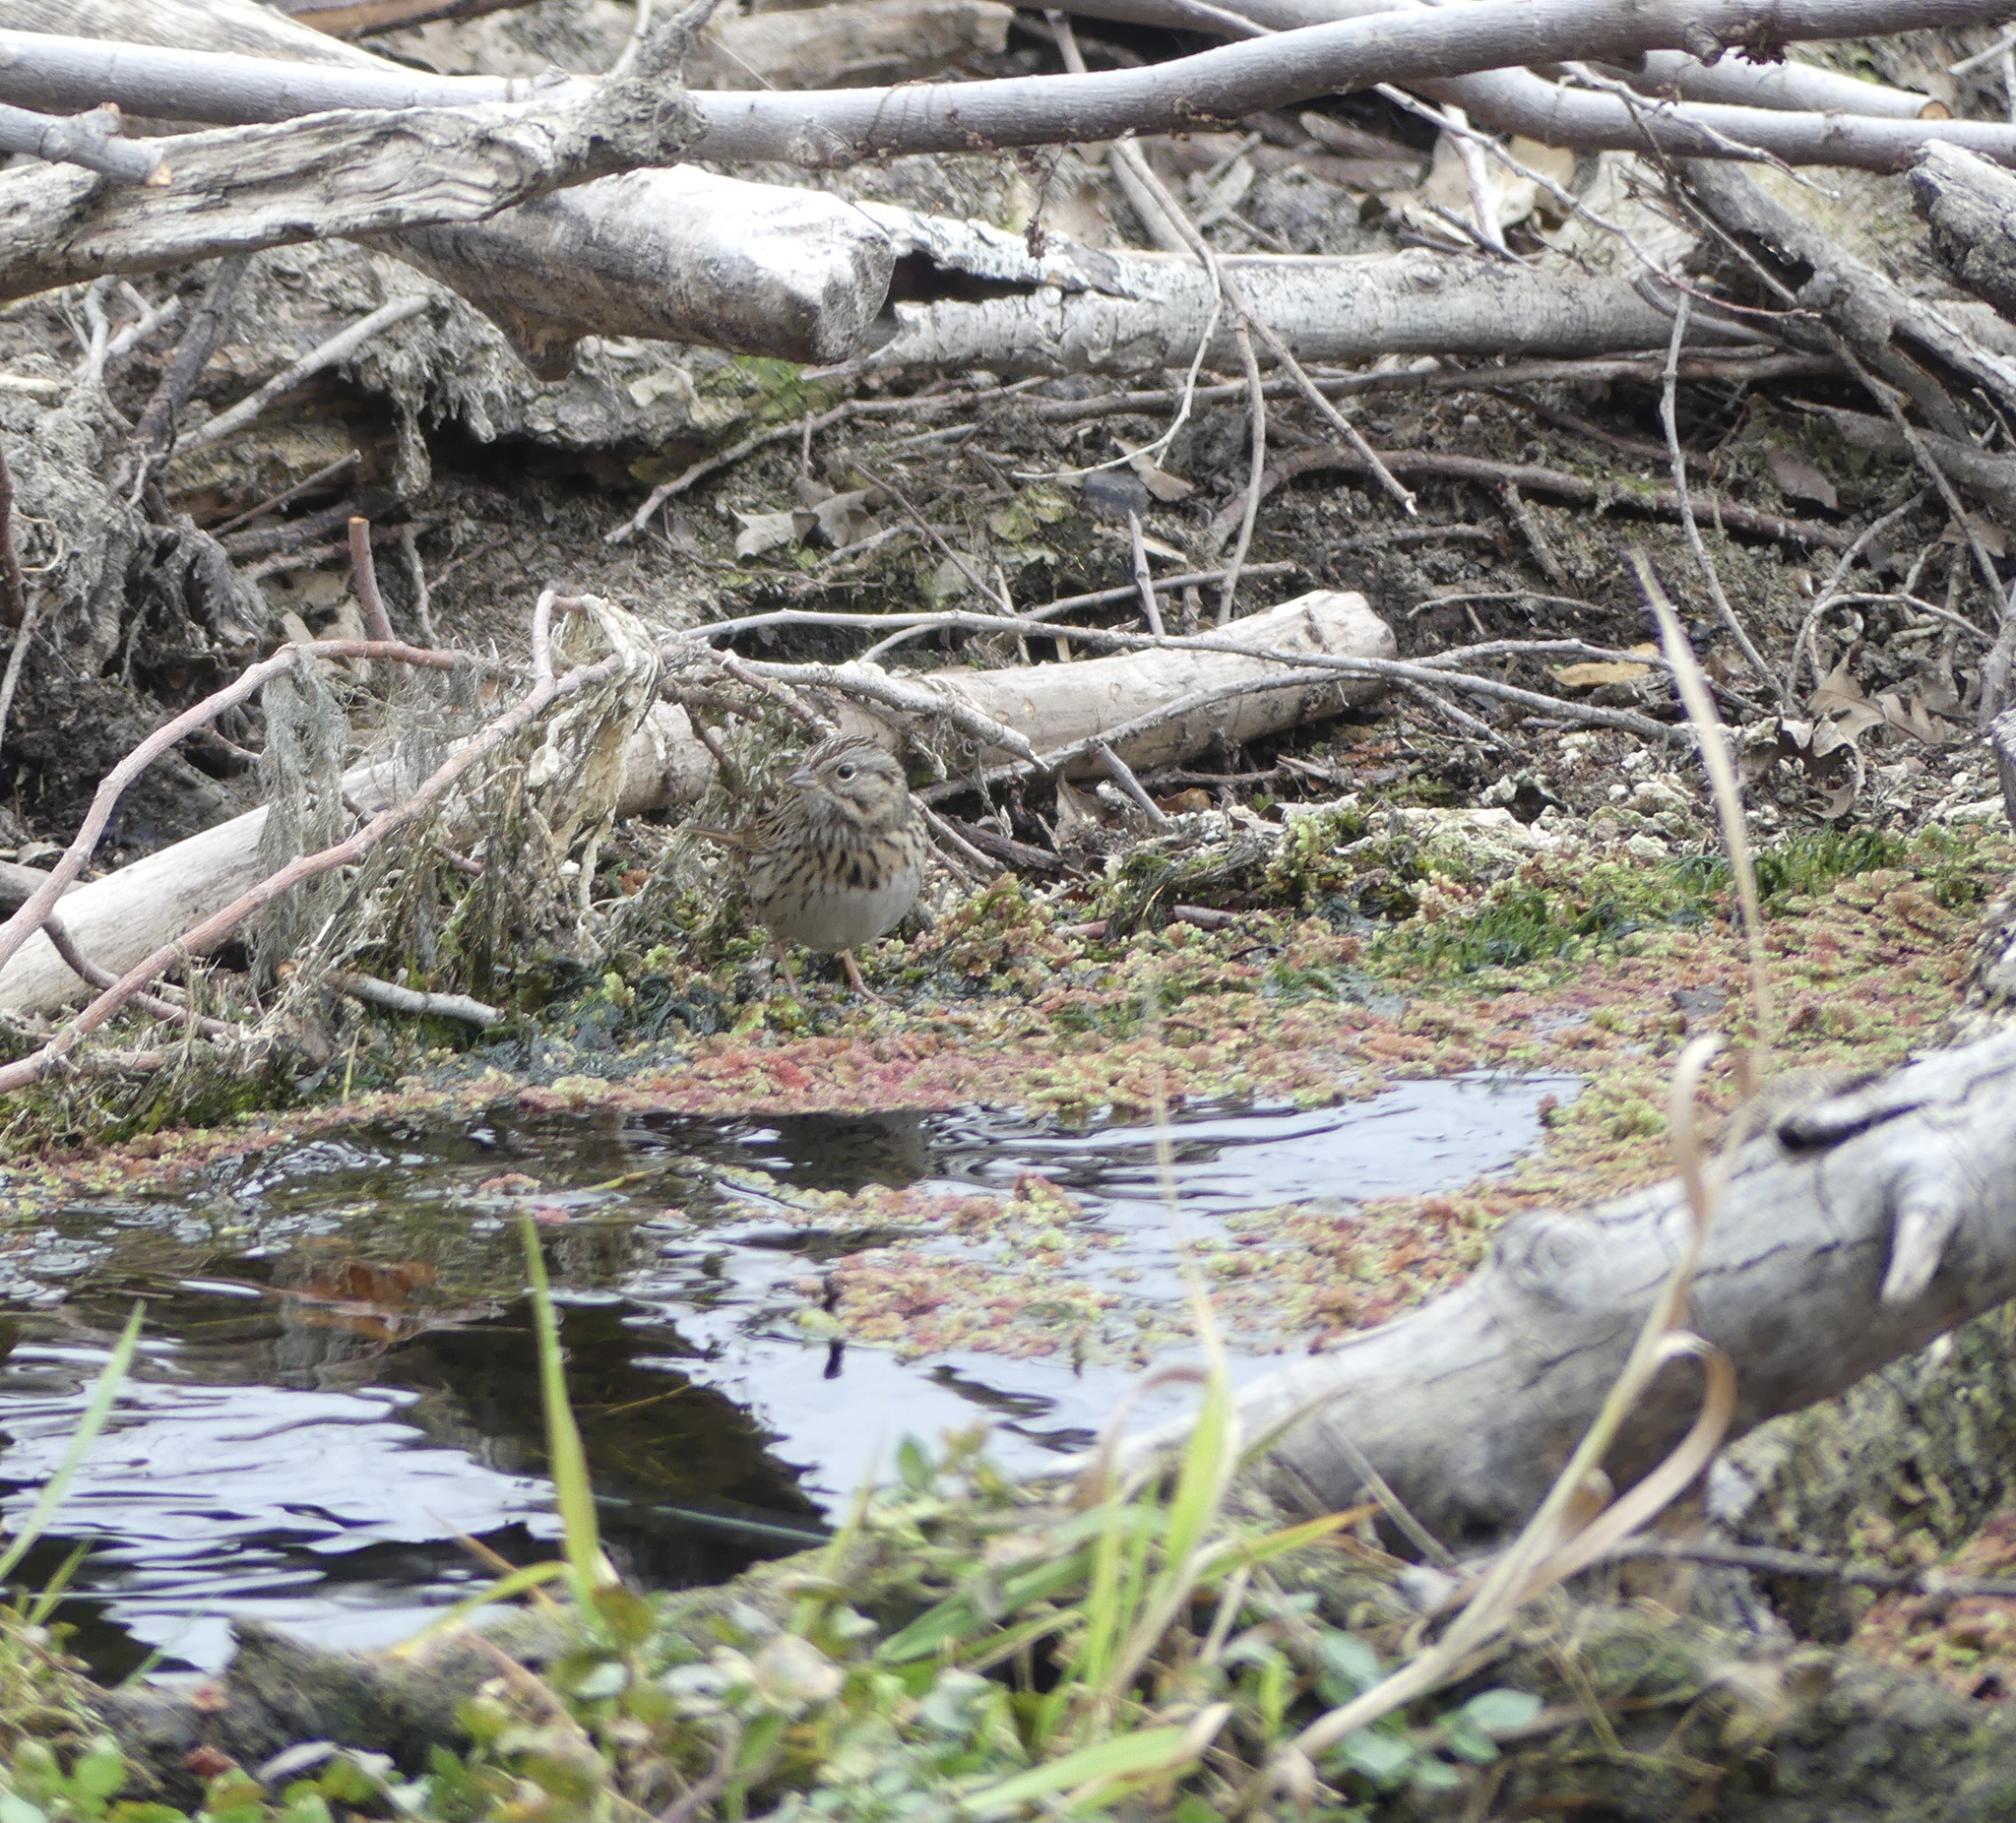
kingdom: Animalia
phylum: Chordata
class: Aves
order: Passeriformes
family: Passerellidae
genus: Melospiza
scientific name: Melospiza lincolnii
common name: Lincoln's sparrow
